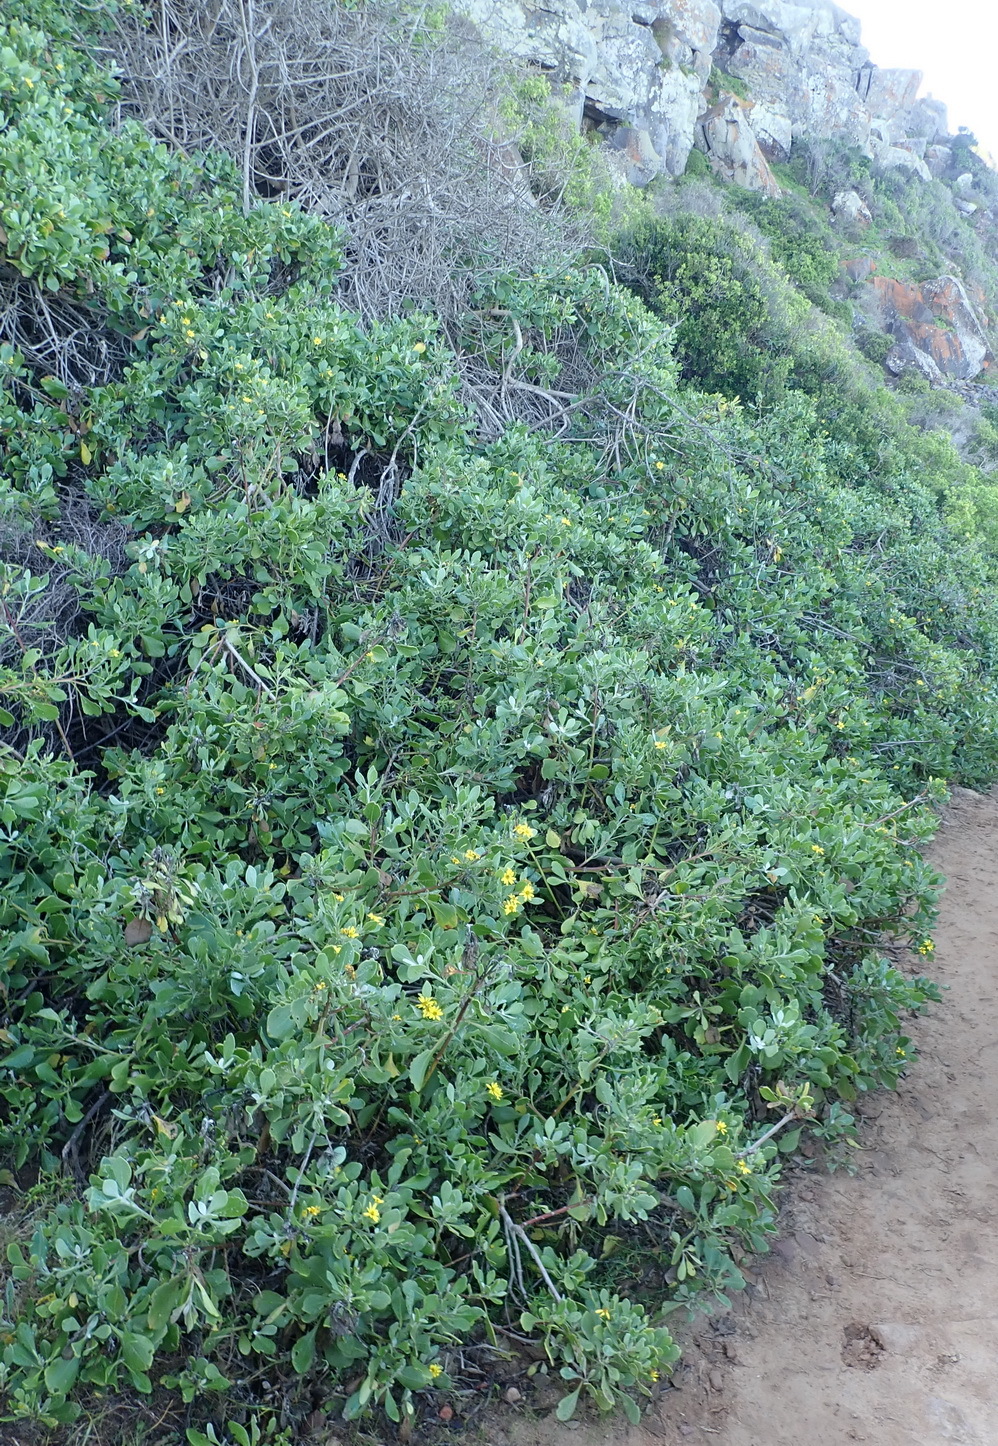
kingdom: Plantae
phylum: Tracheophyta
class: Magnoliopsida
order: Asterales
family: Asteraceae
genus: Osteospermum
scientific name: Osteospermum moniliferum
